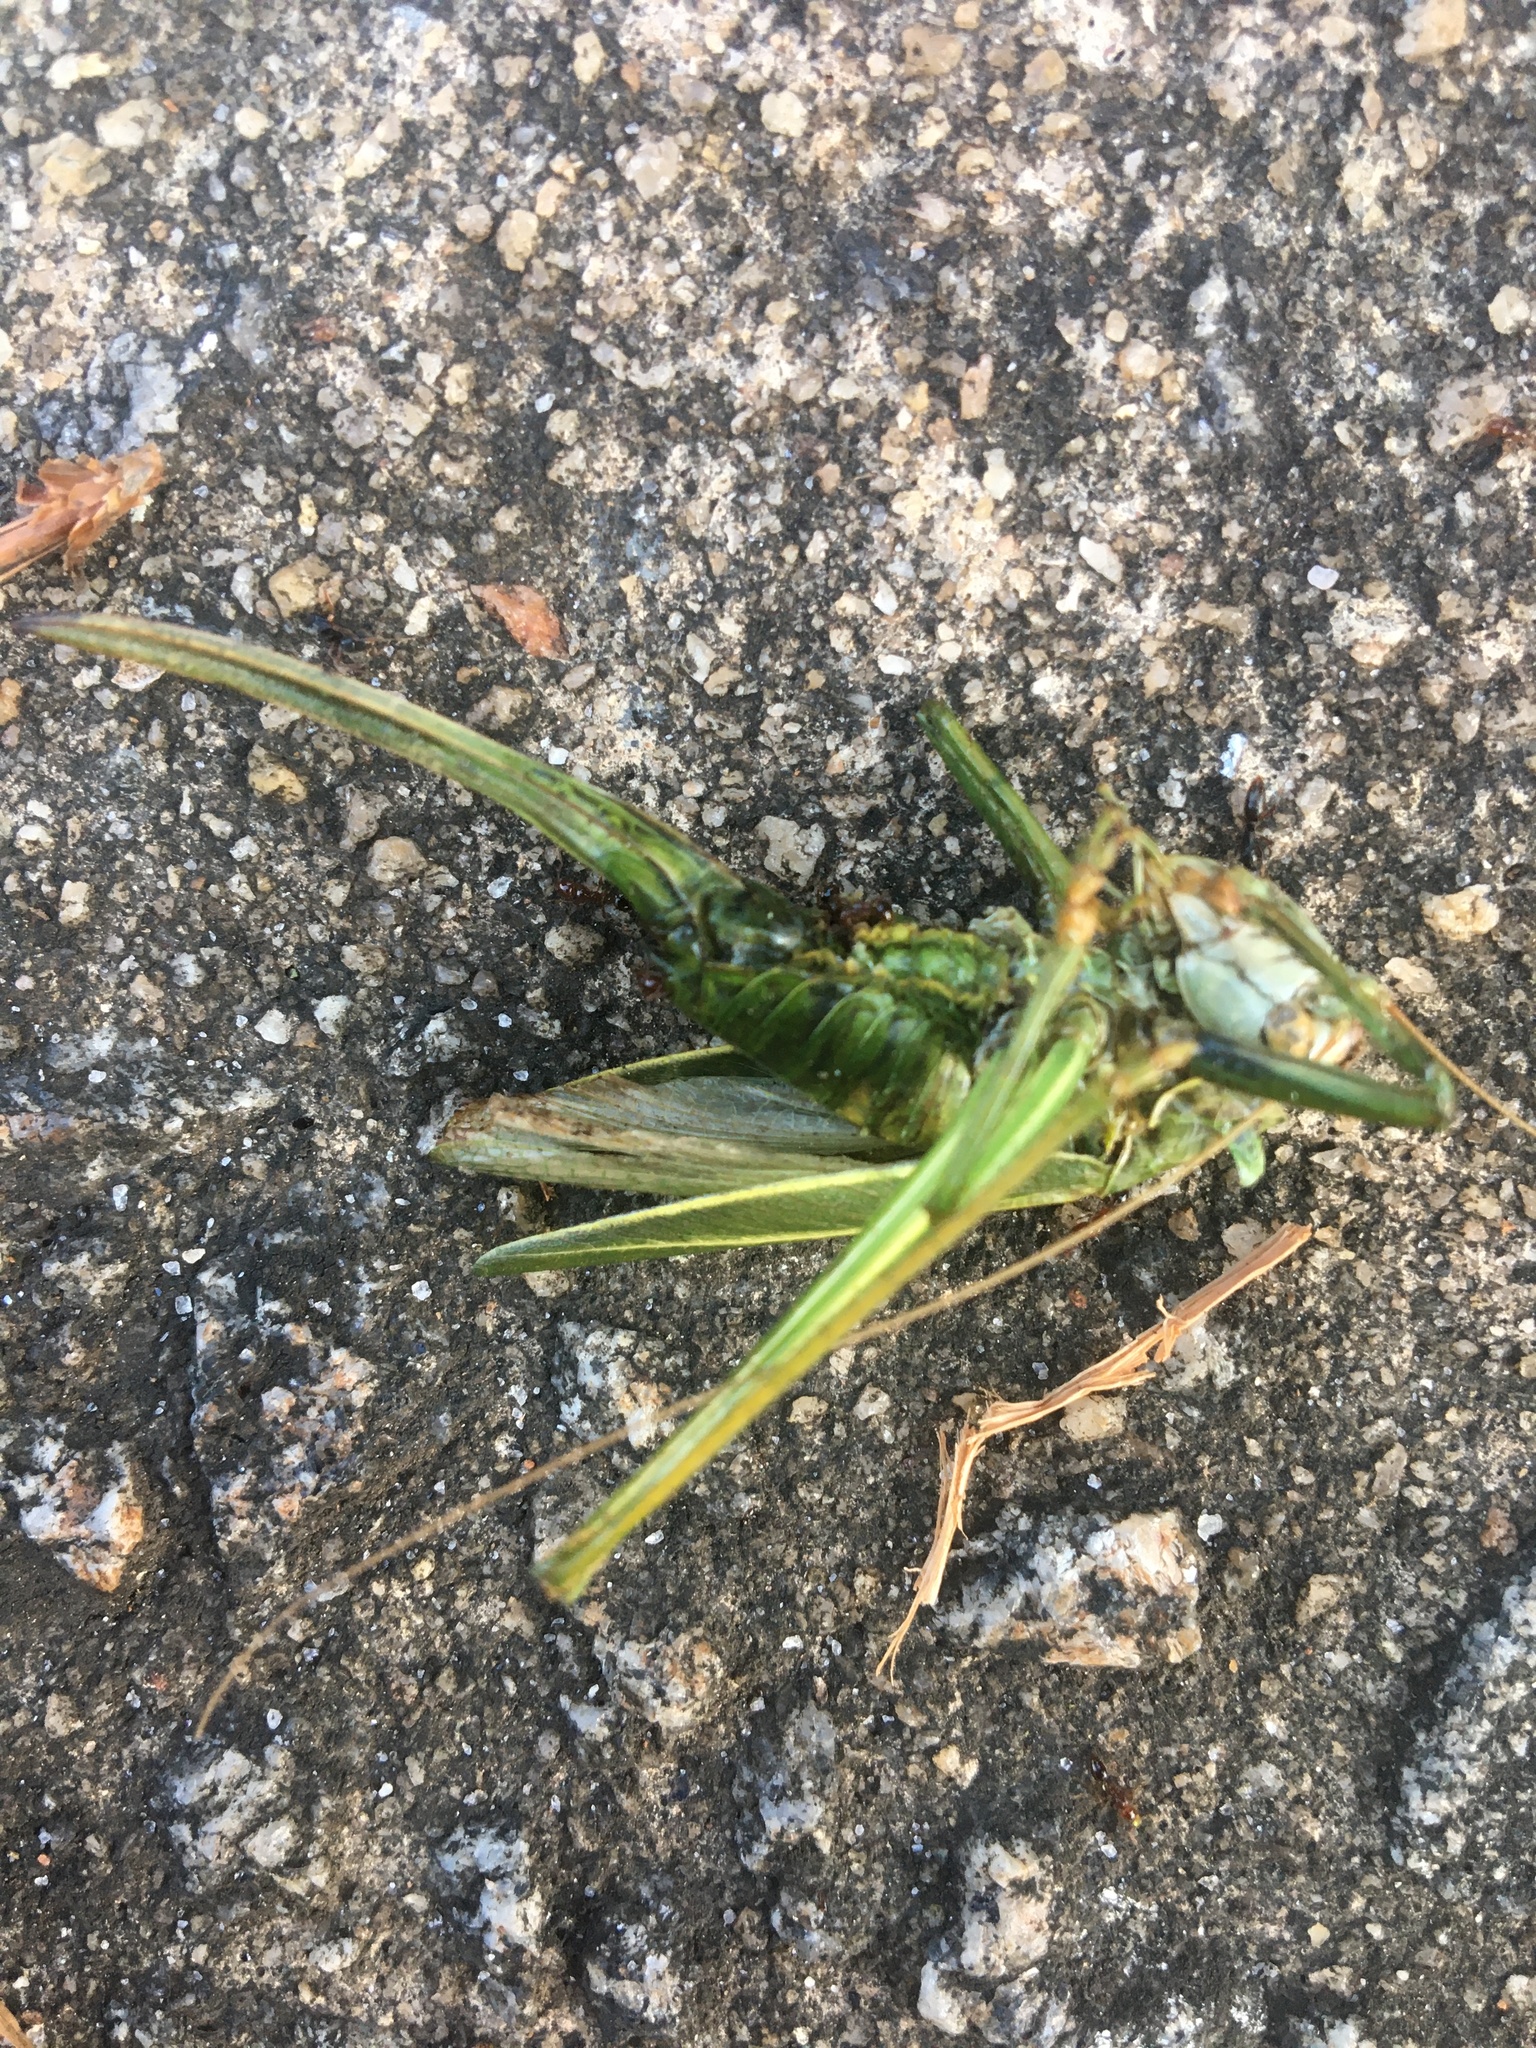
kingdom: Animalia
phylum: Arthropoda
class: Insecta
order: Orthoptera
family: Tettigoniidae
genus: Hubbellia
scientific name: Hubbellia marginifera
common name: Pine katydid
